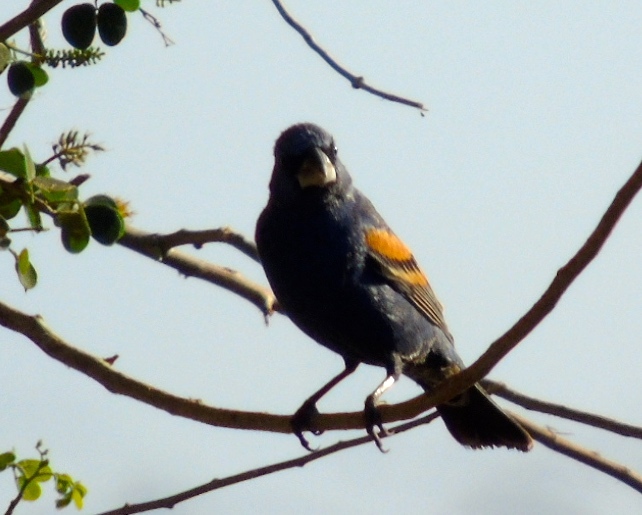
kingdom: Animalia
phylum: Chordata
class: Aves
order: Passeriformes
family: Cardinalidae
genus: Passerina
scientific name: Passerina caerulea
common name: Blue grosbeak
